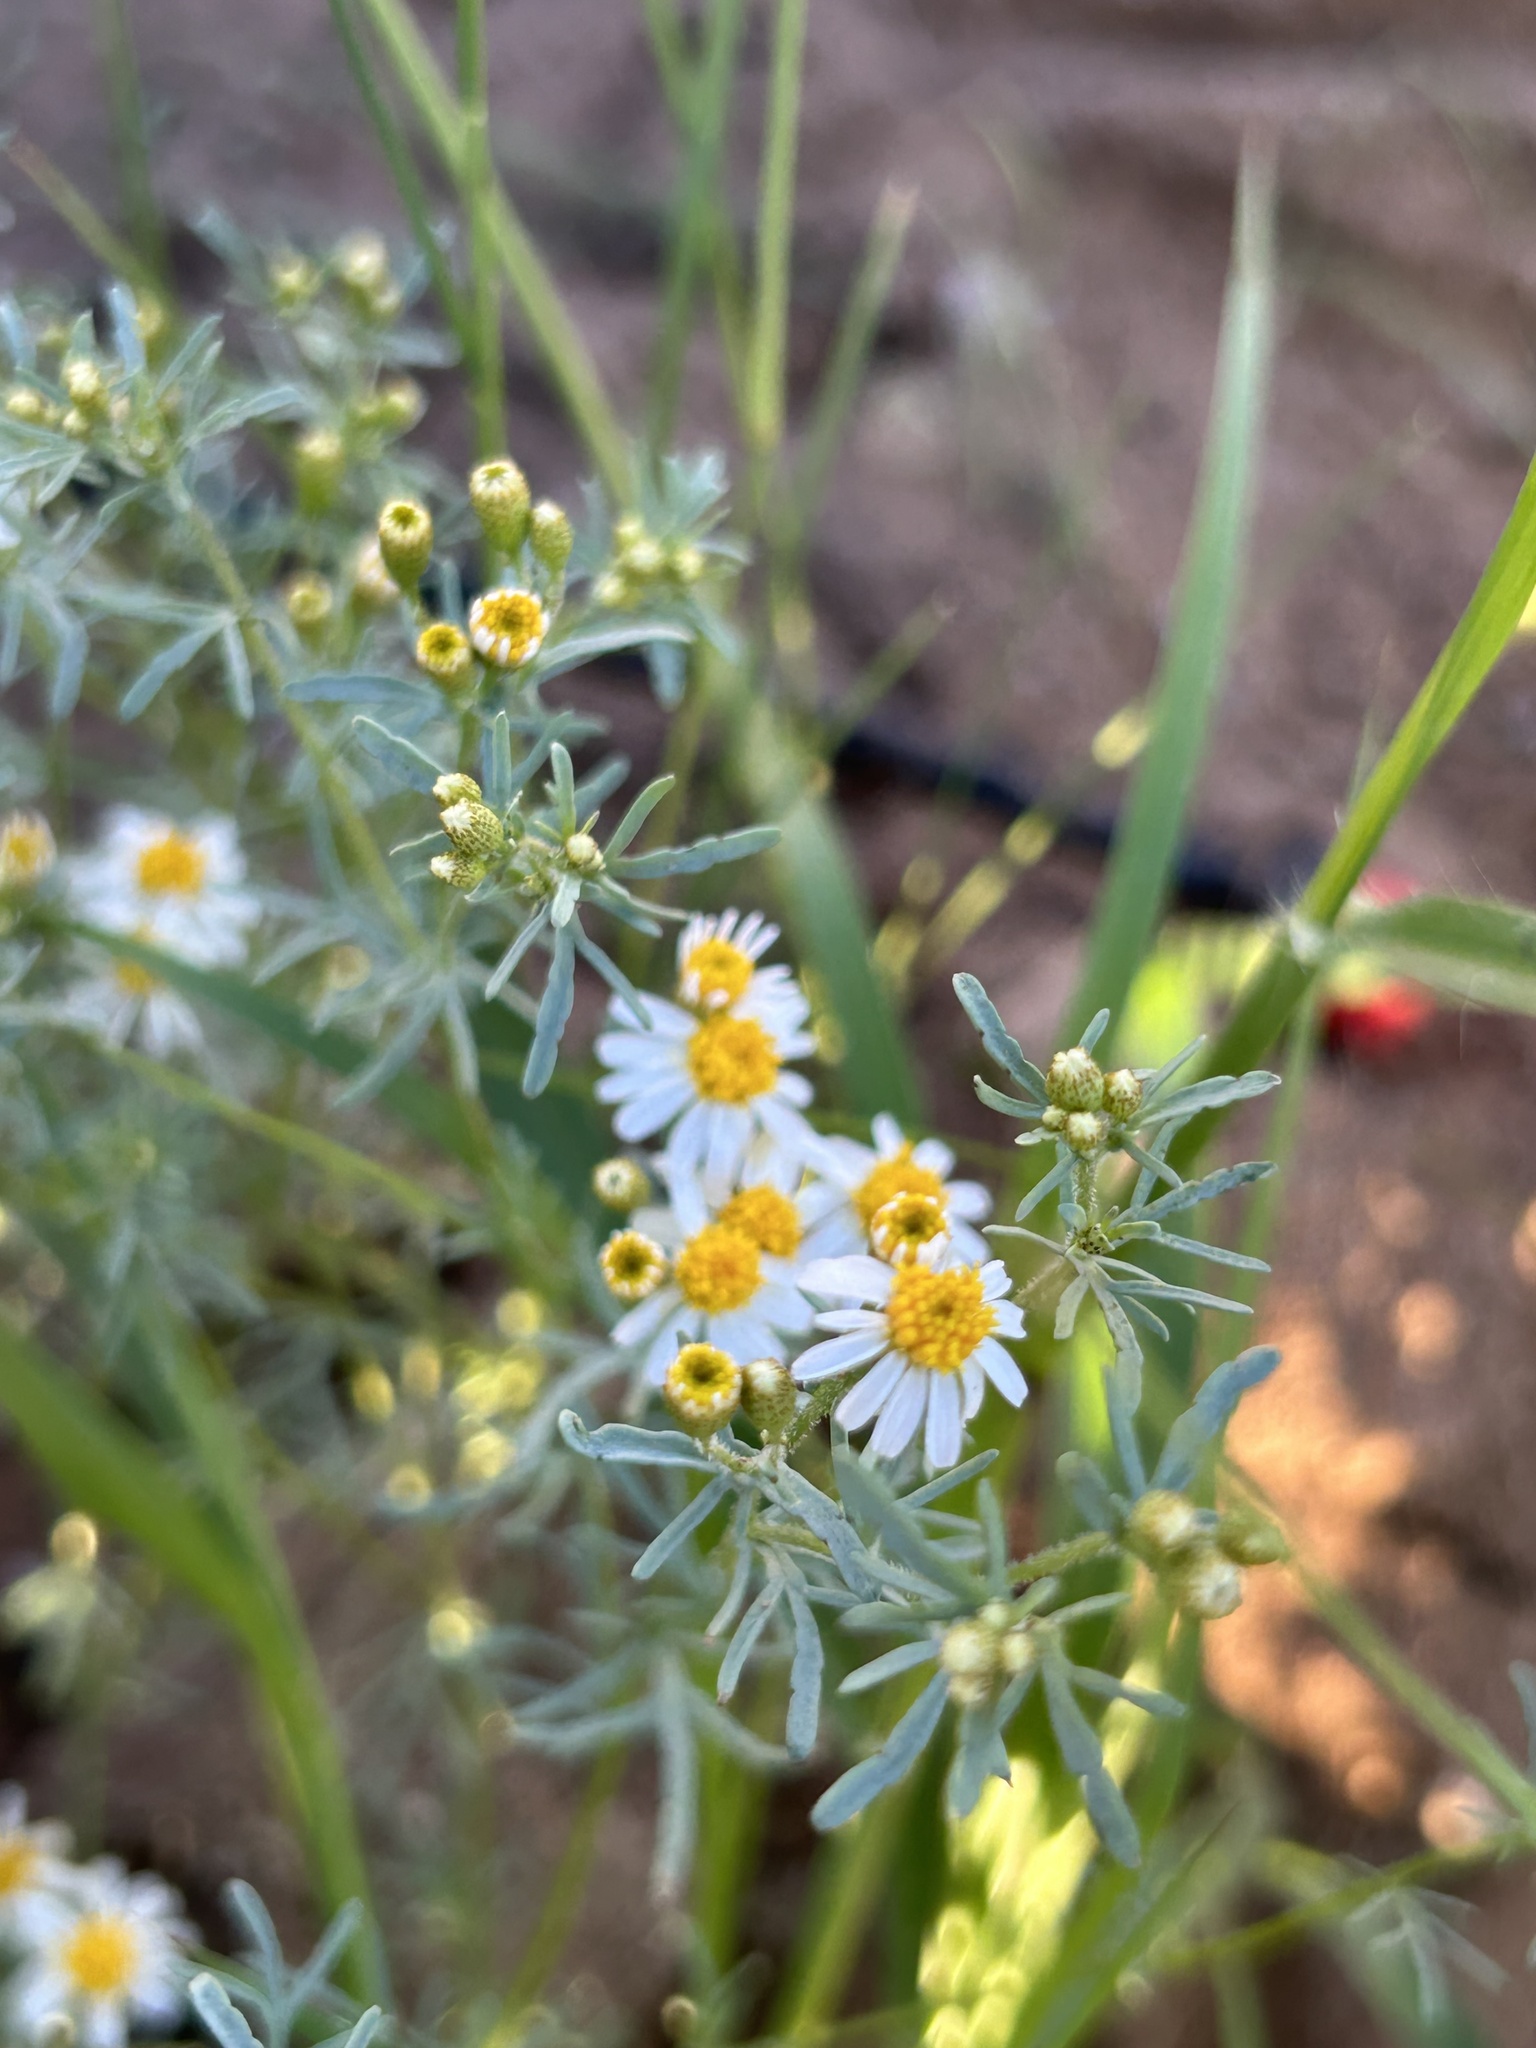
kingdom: Plantae
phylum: Tracheophyta
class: Magnoliopsida
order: Asterales
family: Asteraceae
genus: Thymophylla
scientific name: Thymophylla concinna
